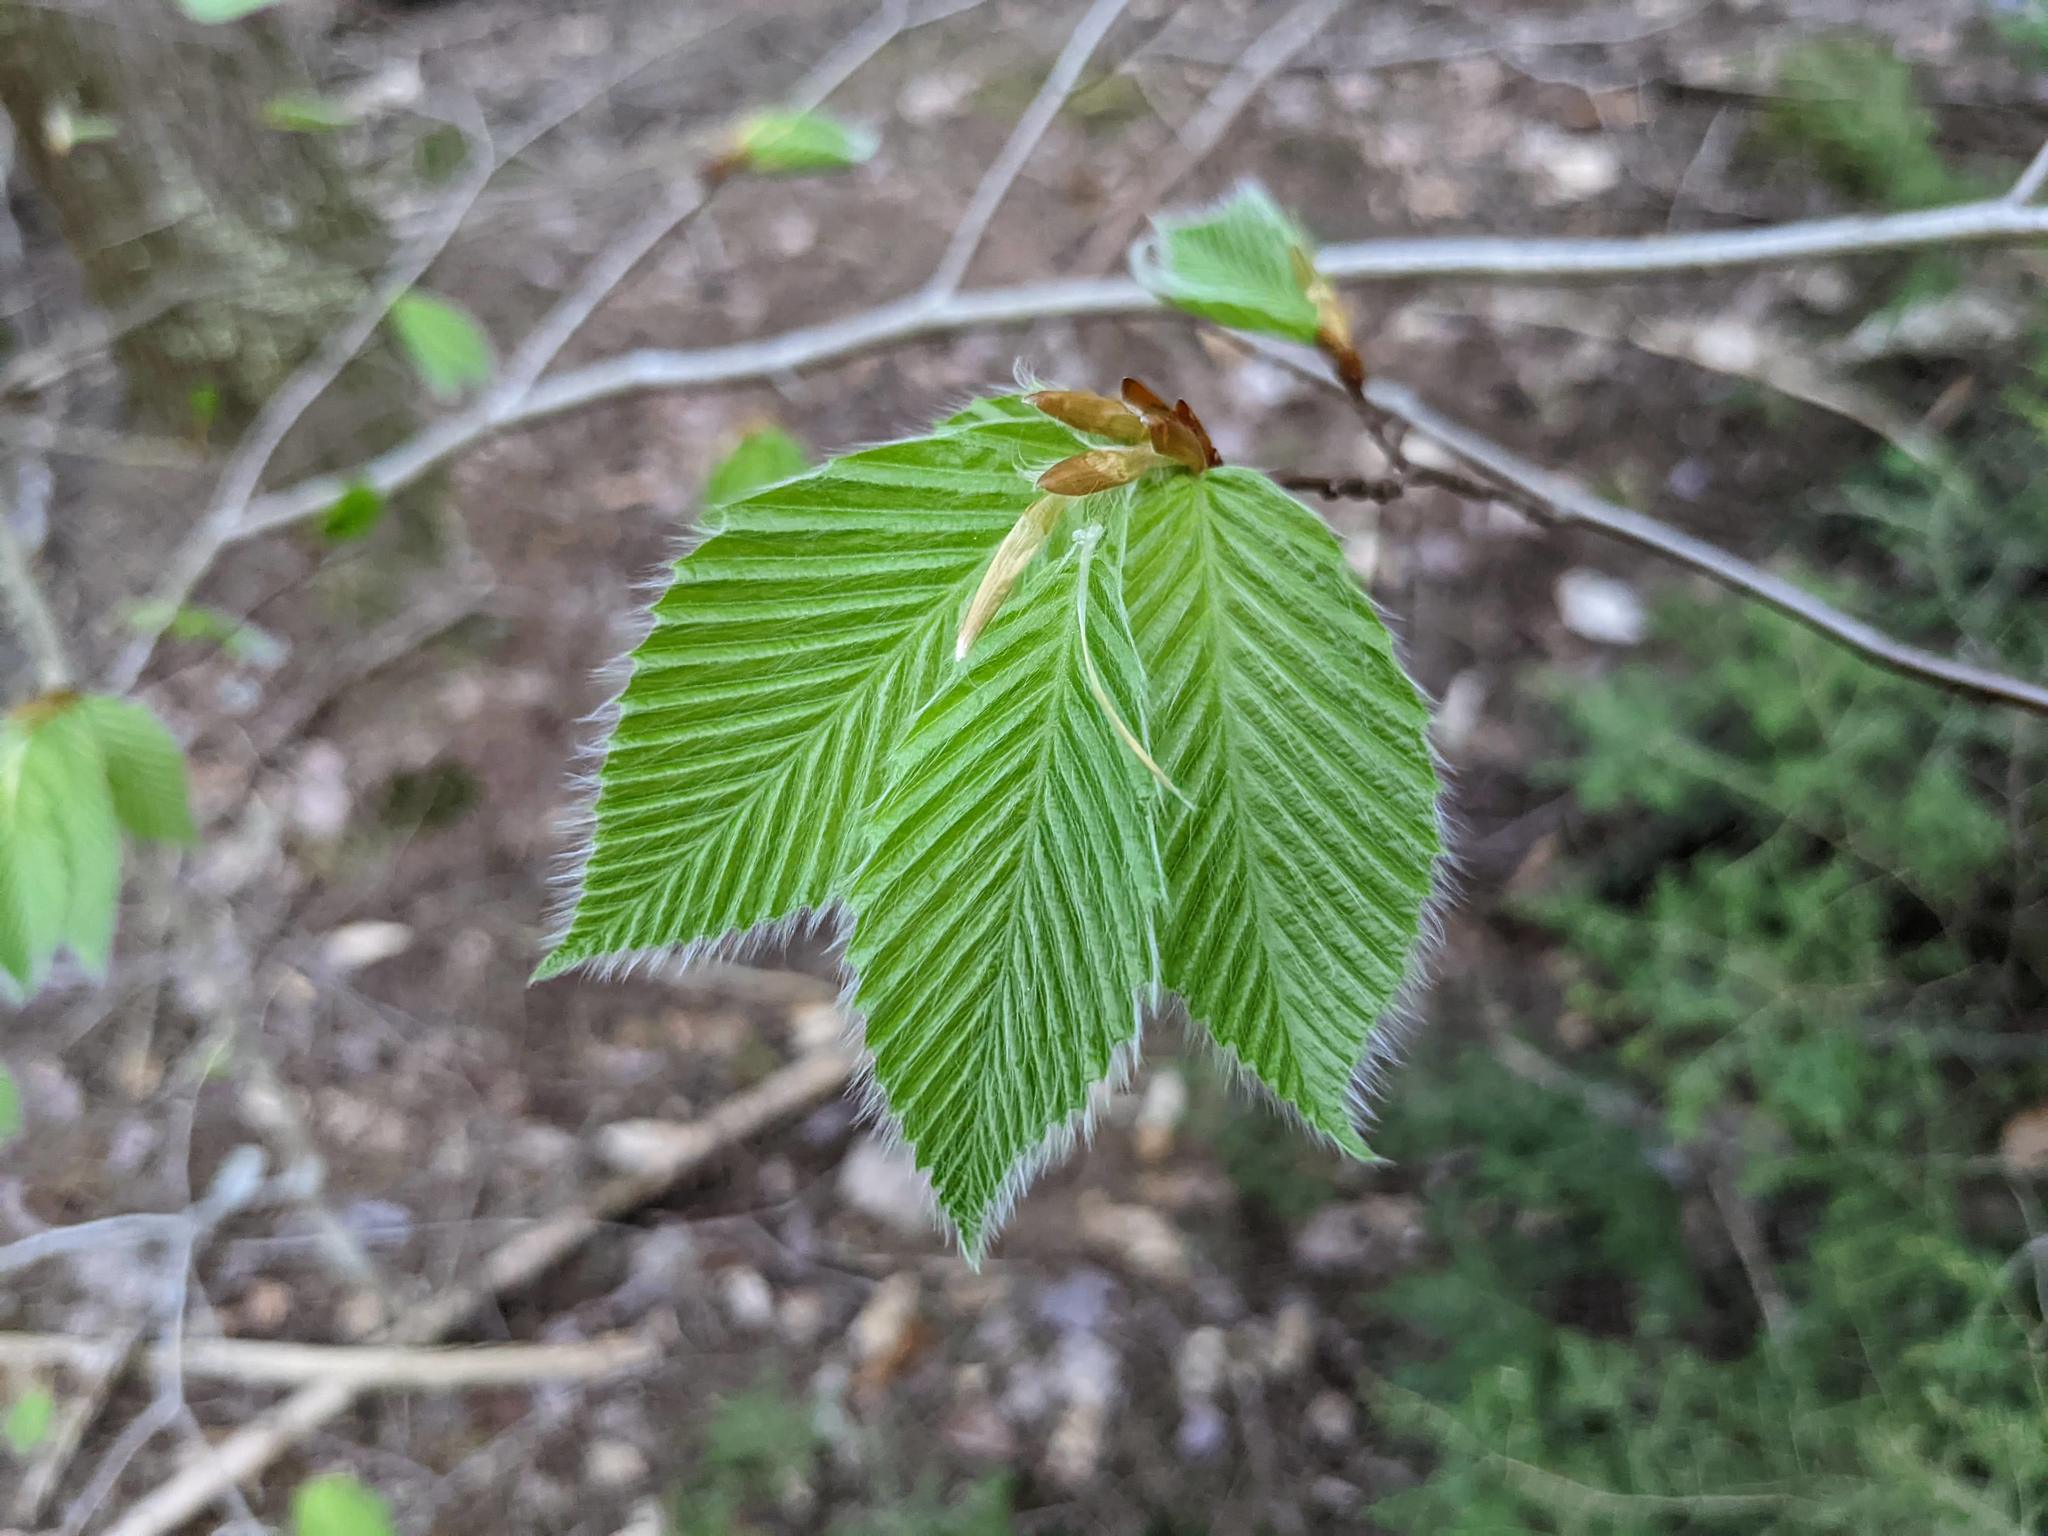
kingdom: Plantae
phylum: Tracheophyta
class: Magnoliopsida
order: Fagales
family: Fagaceae
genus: Fagus
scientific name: Fagus grandifolia
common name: American beech
